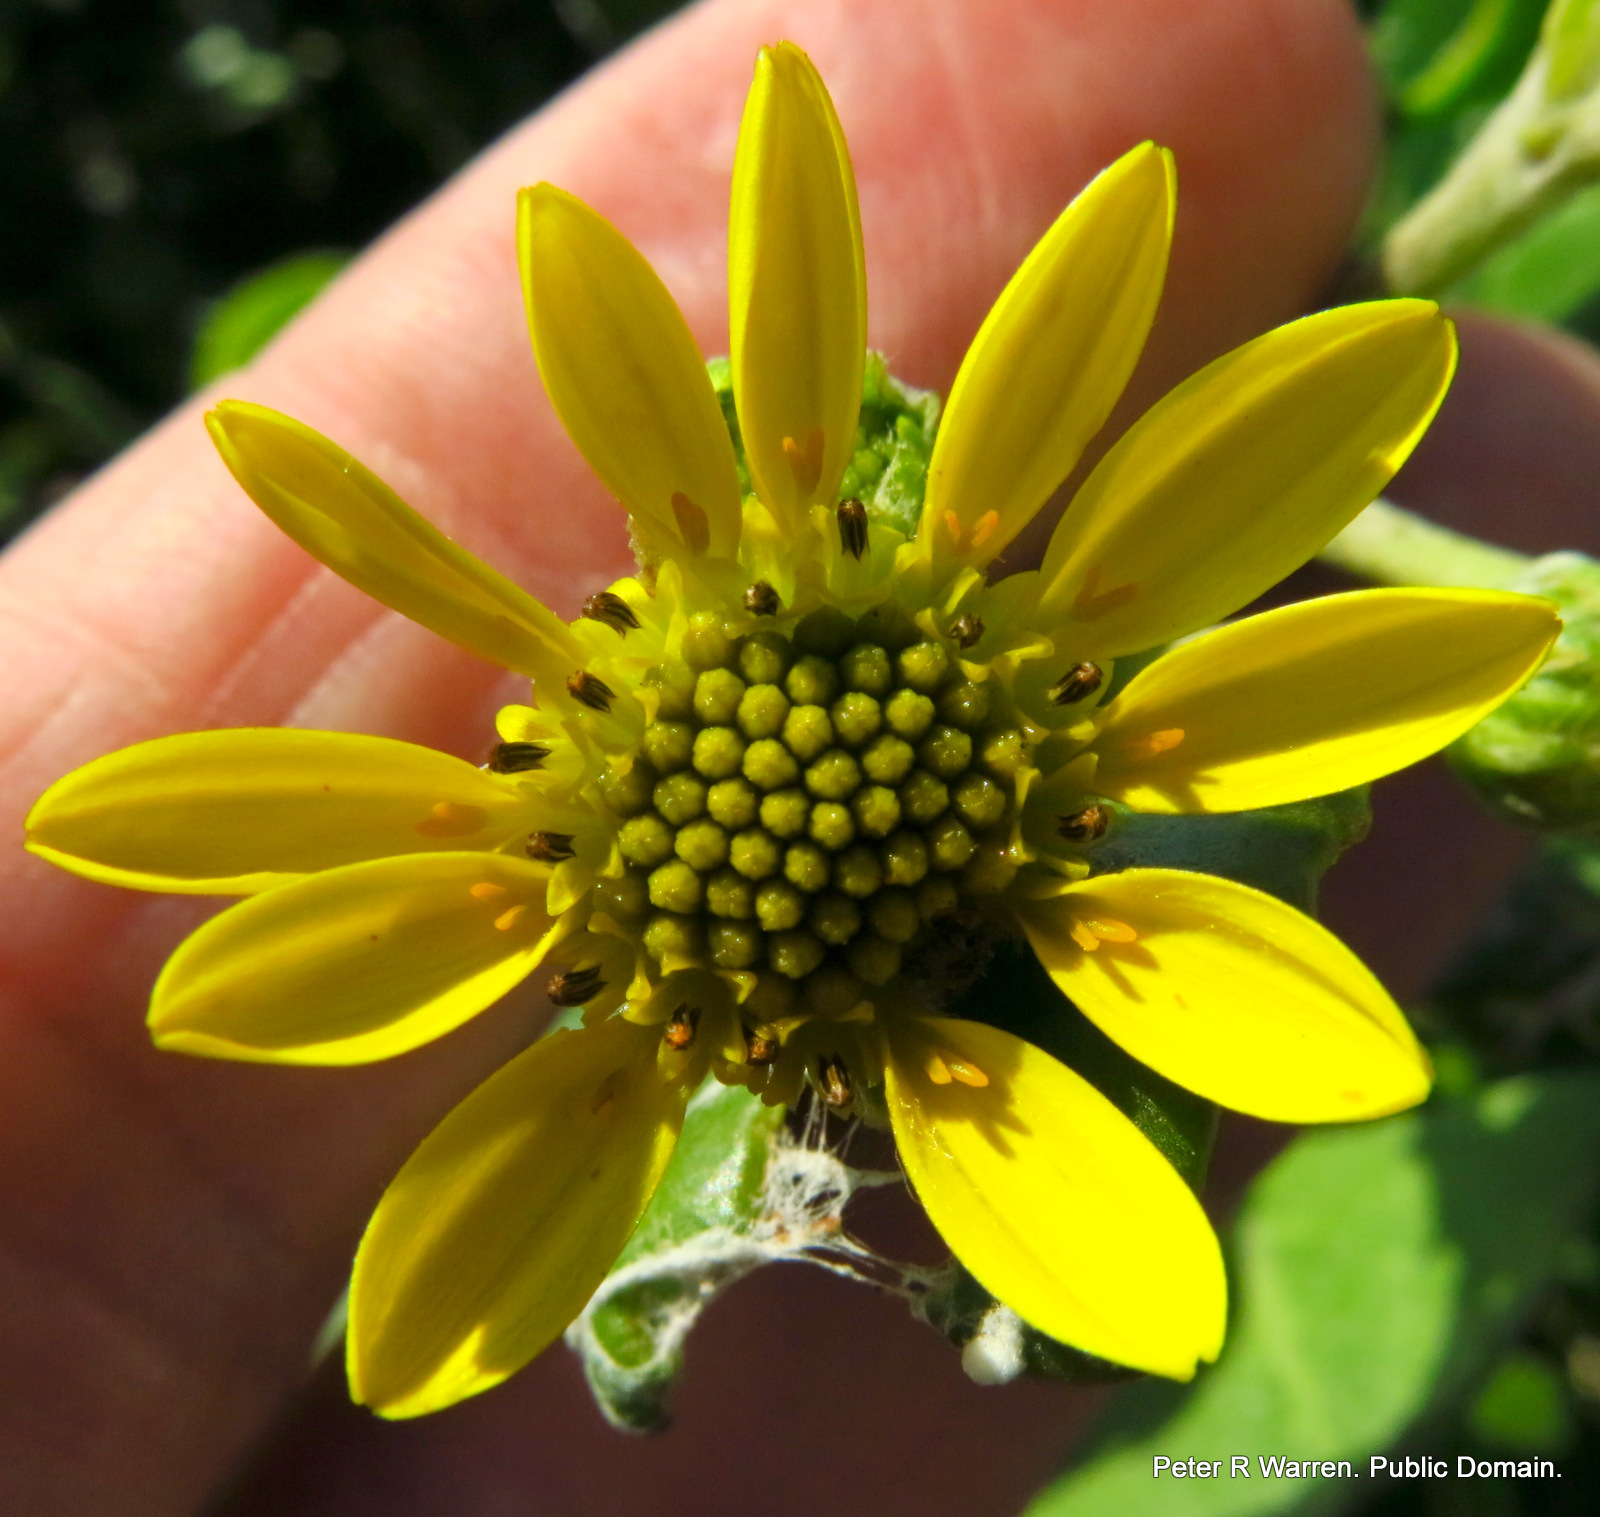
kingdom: Plantae
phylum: Tracheophyta
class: Magnoliopsida
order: Asterales
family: Asteraceae
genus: Osteospermum
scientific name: Osteospermum moniliferum
